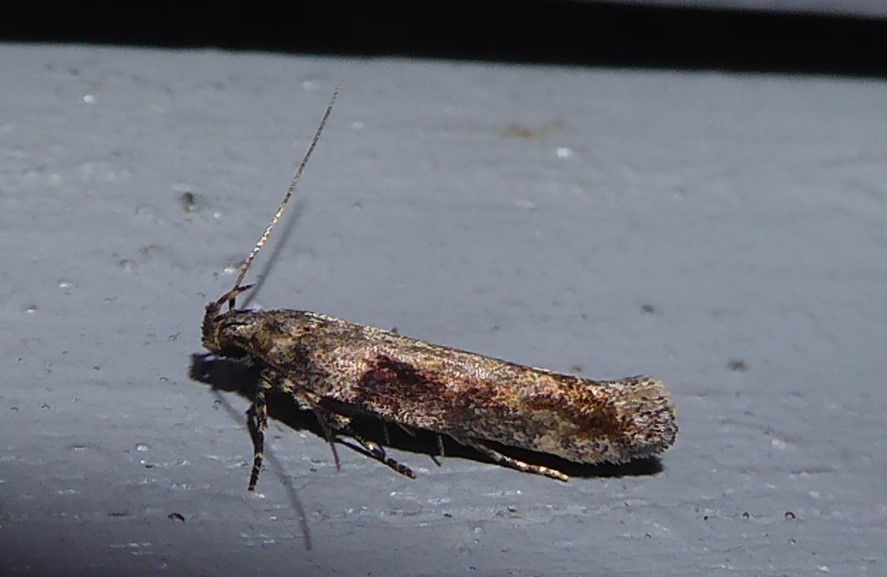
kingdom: Animalia
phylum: Arthropoda
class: Insecta
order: Lepidoptera
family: Gelechiidae
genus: Symmetrischema
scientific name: Symmetrischema tangolias
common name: Moth
